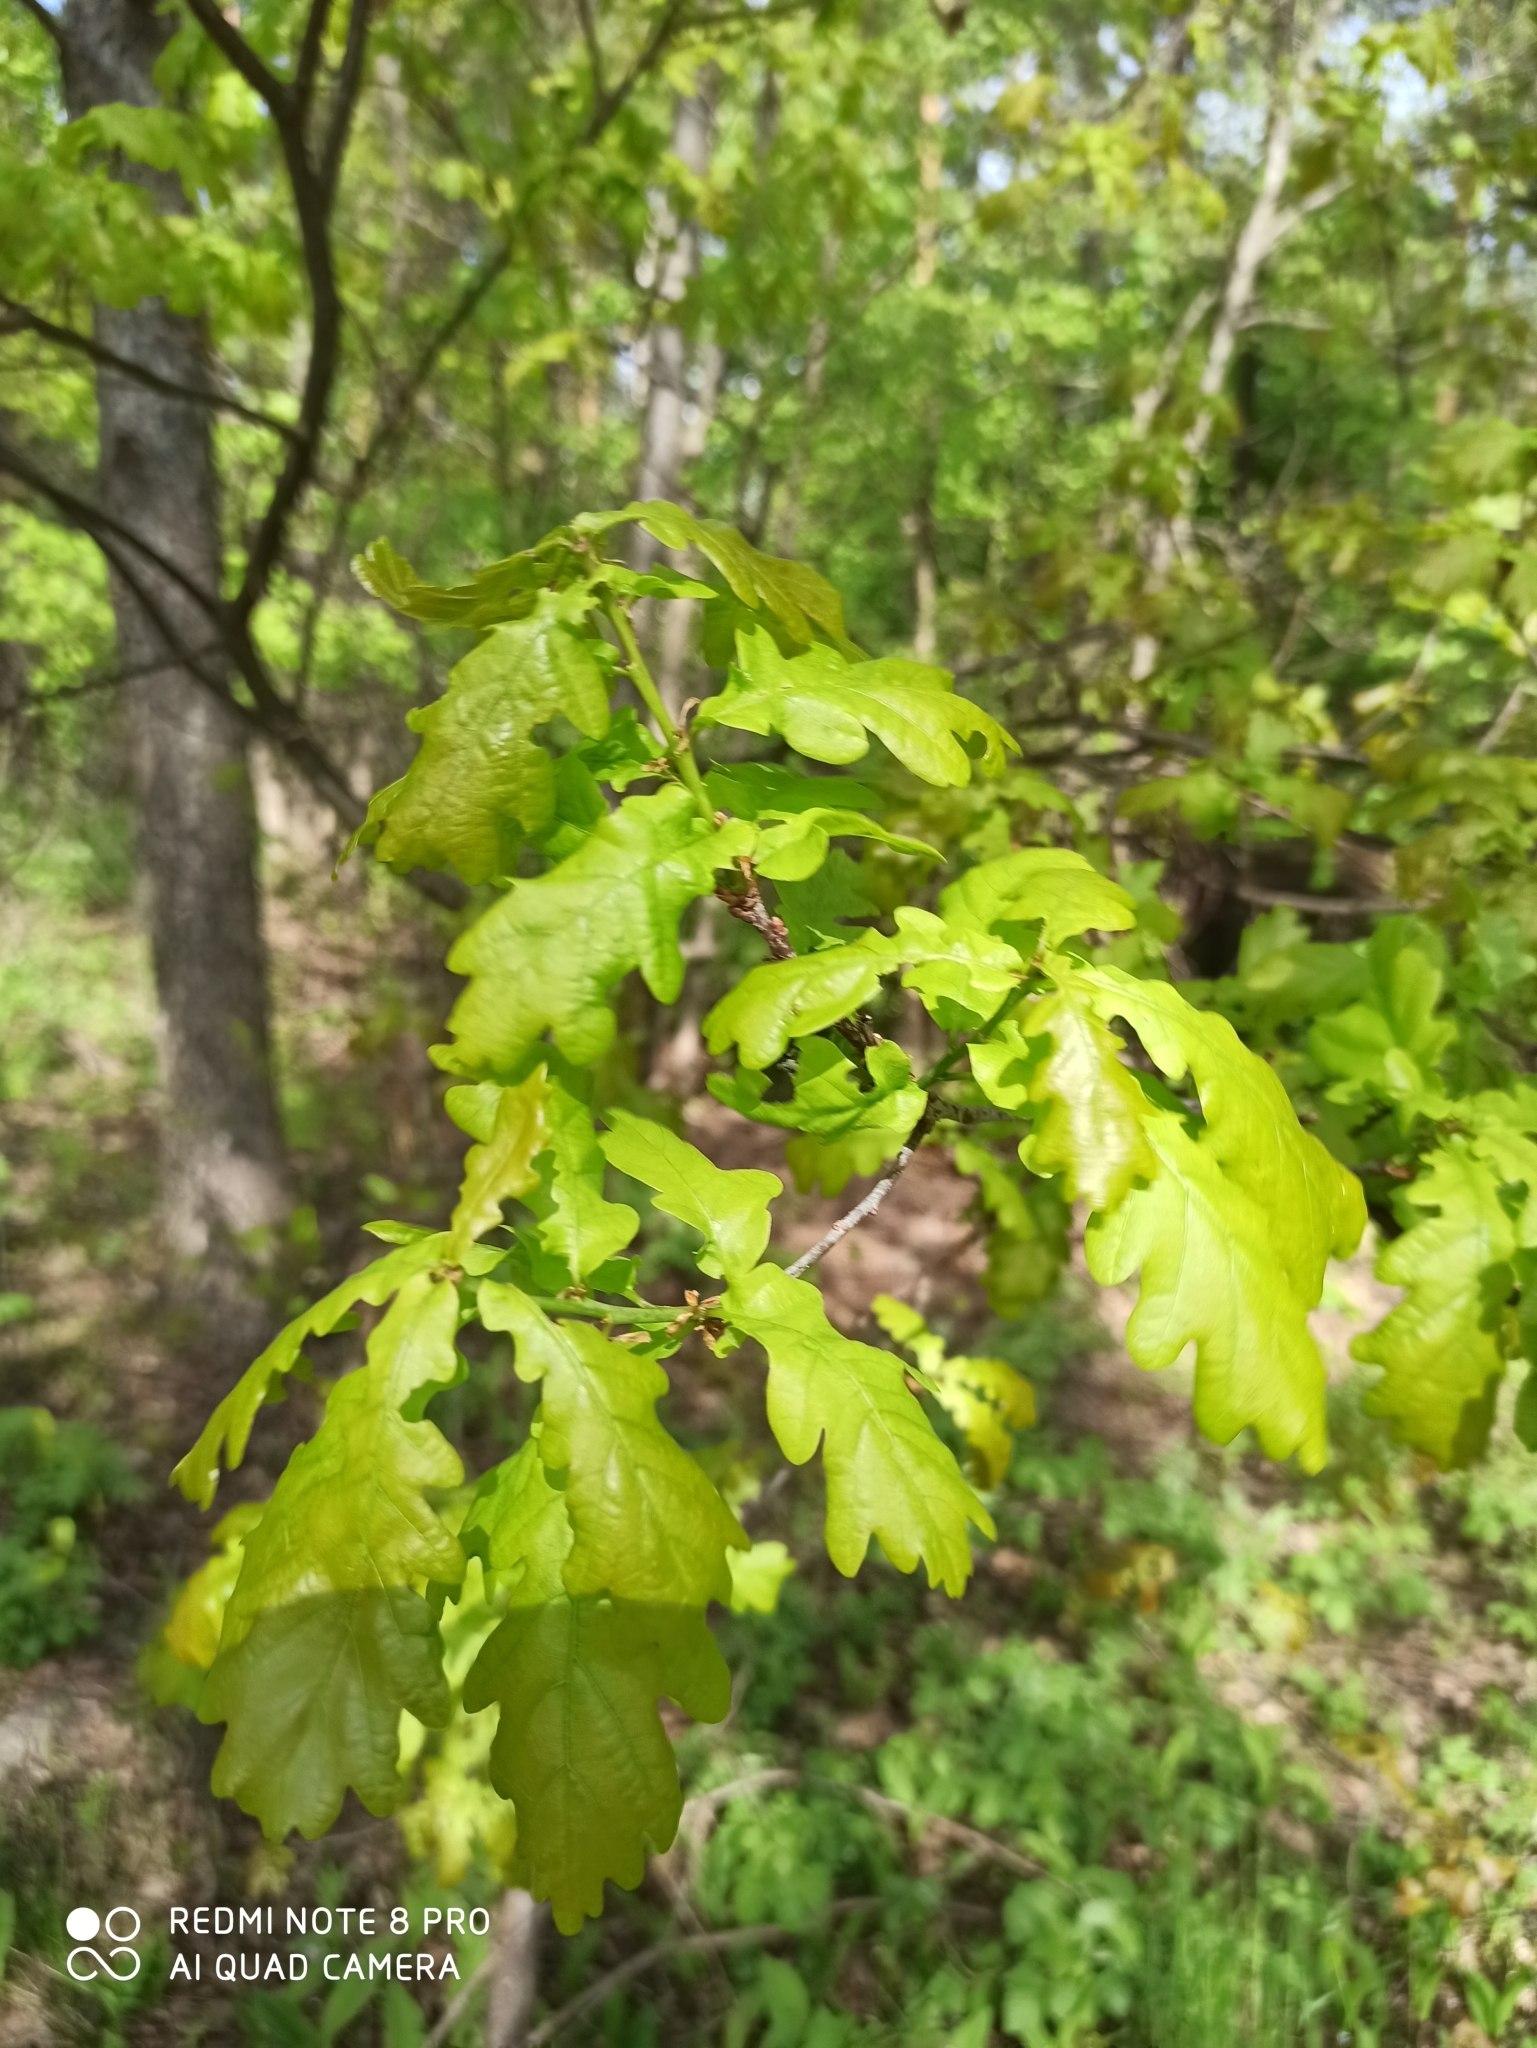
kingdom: Plantae
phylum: Tracheophyta
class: Magnoliopsida
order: Fagales
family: Fagaceae
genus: Quercus
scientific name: Quercus robur
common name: Pedunculate oak
